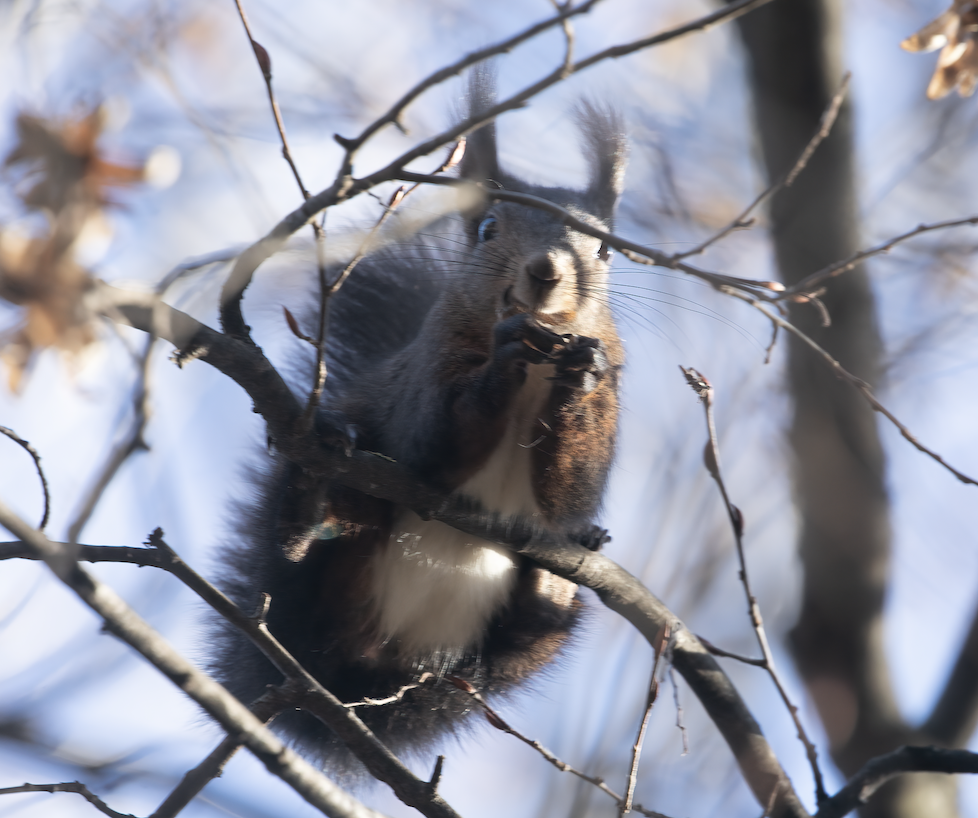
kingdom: Animalia
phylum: Chordata
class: Mammalia
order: Rodentia
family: Sciuridae
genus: Sciurus
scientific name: Sciurus vulgaris
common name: Eurasian red squirrel
